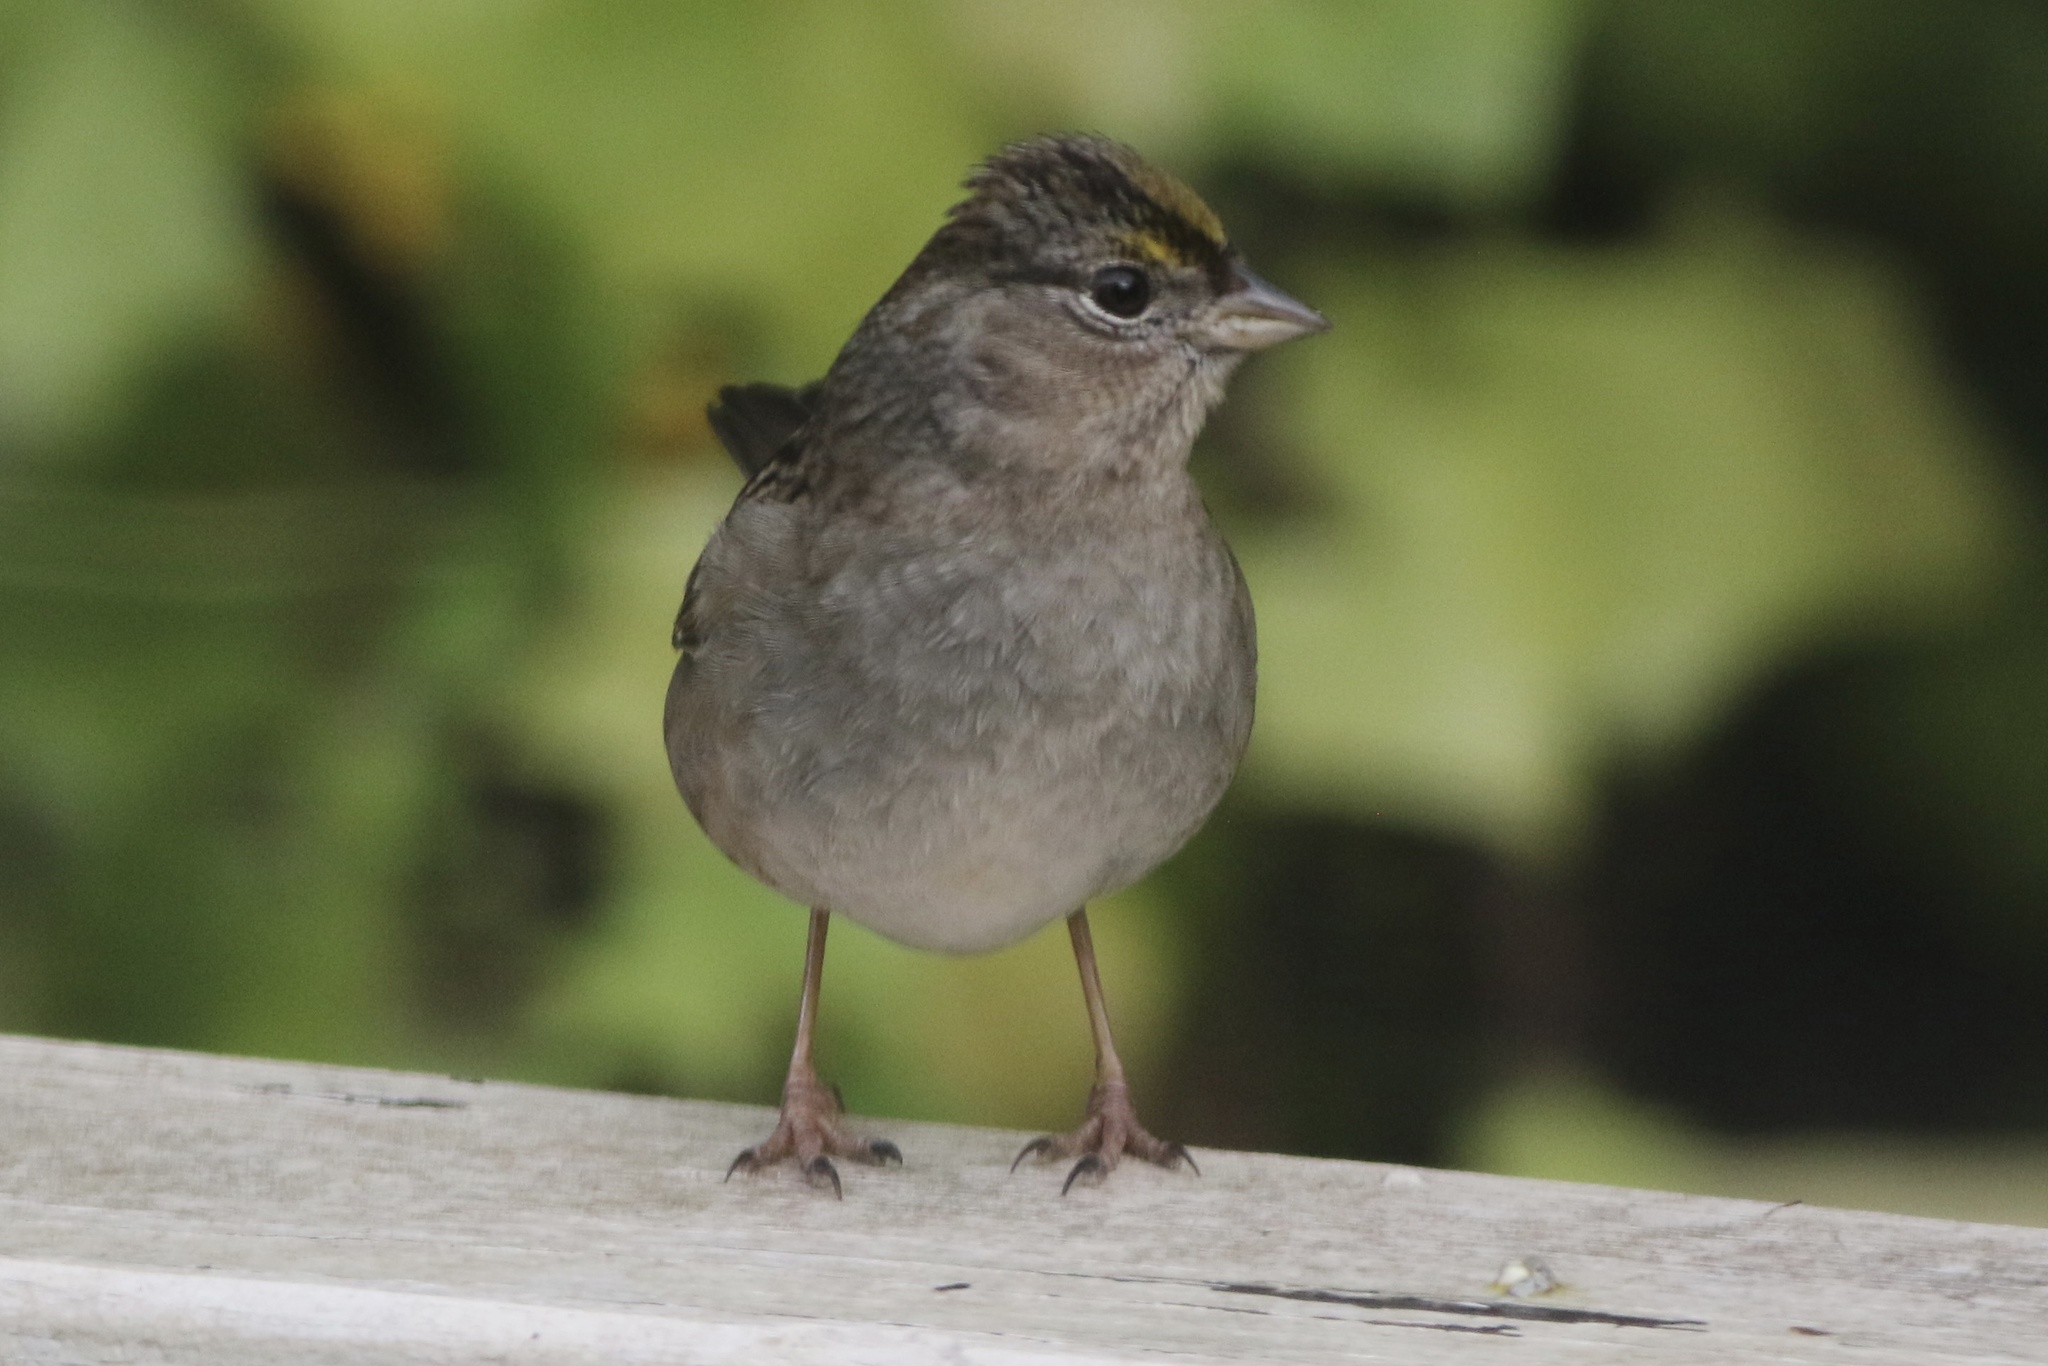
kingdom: Animalia
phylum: Chordata
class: Aves
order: Passeriformes
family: Passerellidae
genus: Zonotrichia
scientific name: Zonotrichia atricapilla
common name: Golden-crowned sparrow
